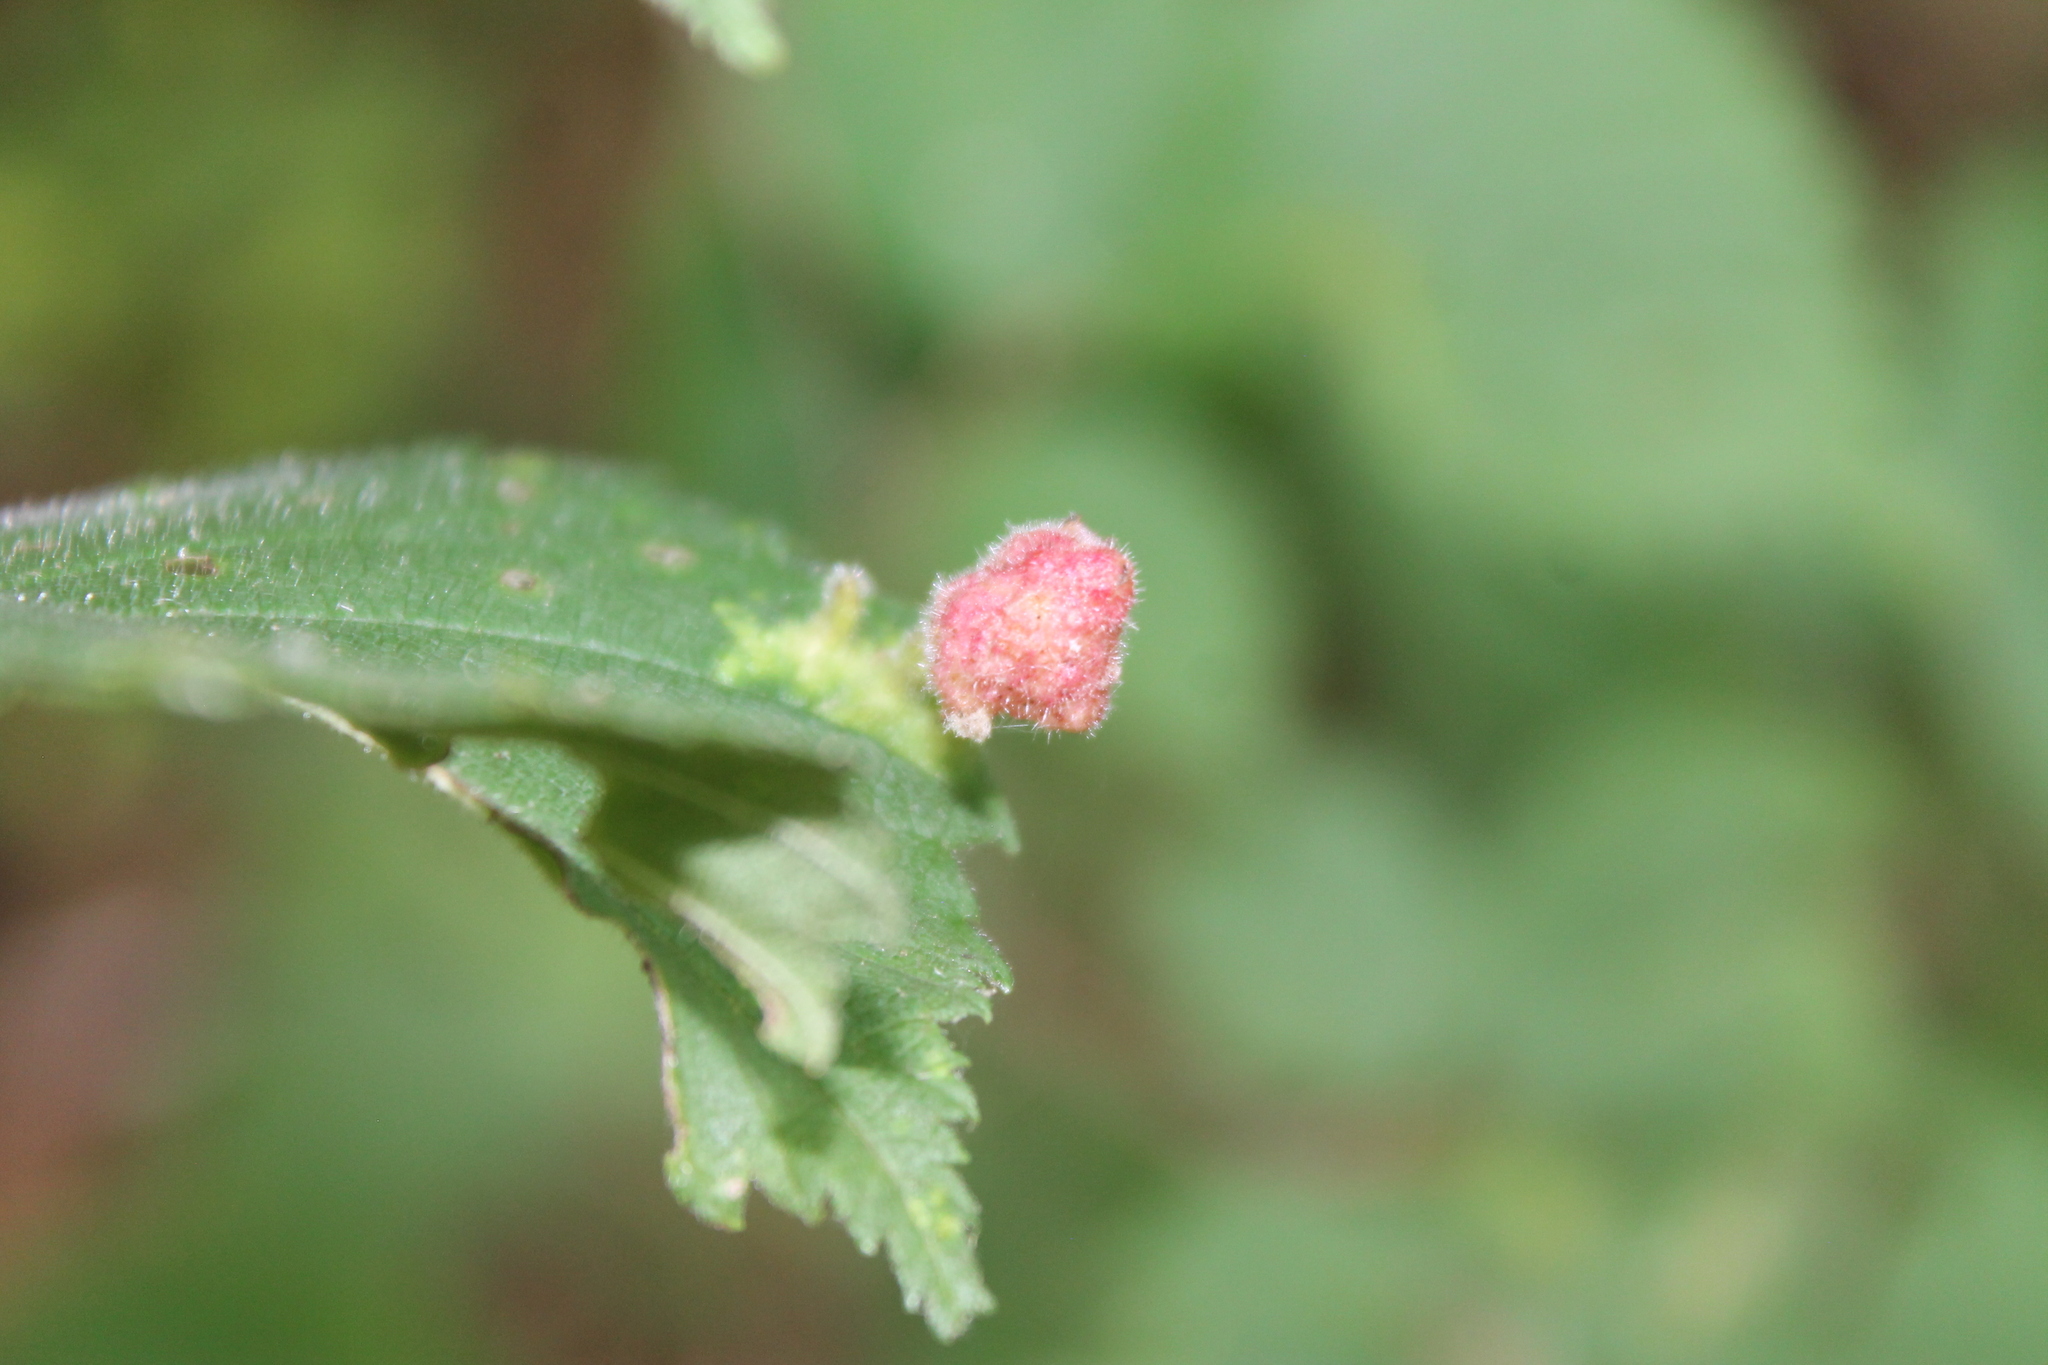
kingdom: Animalia
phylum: Arthropoda
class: Insecta
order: Hemiptera
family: Aphididae
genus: Tetraneura
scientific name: Tetraneura nigriabdominalis
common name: Aphid
